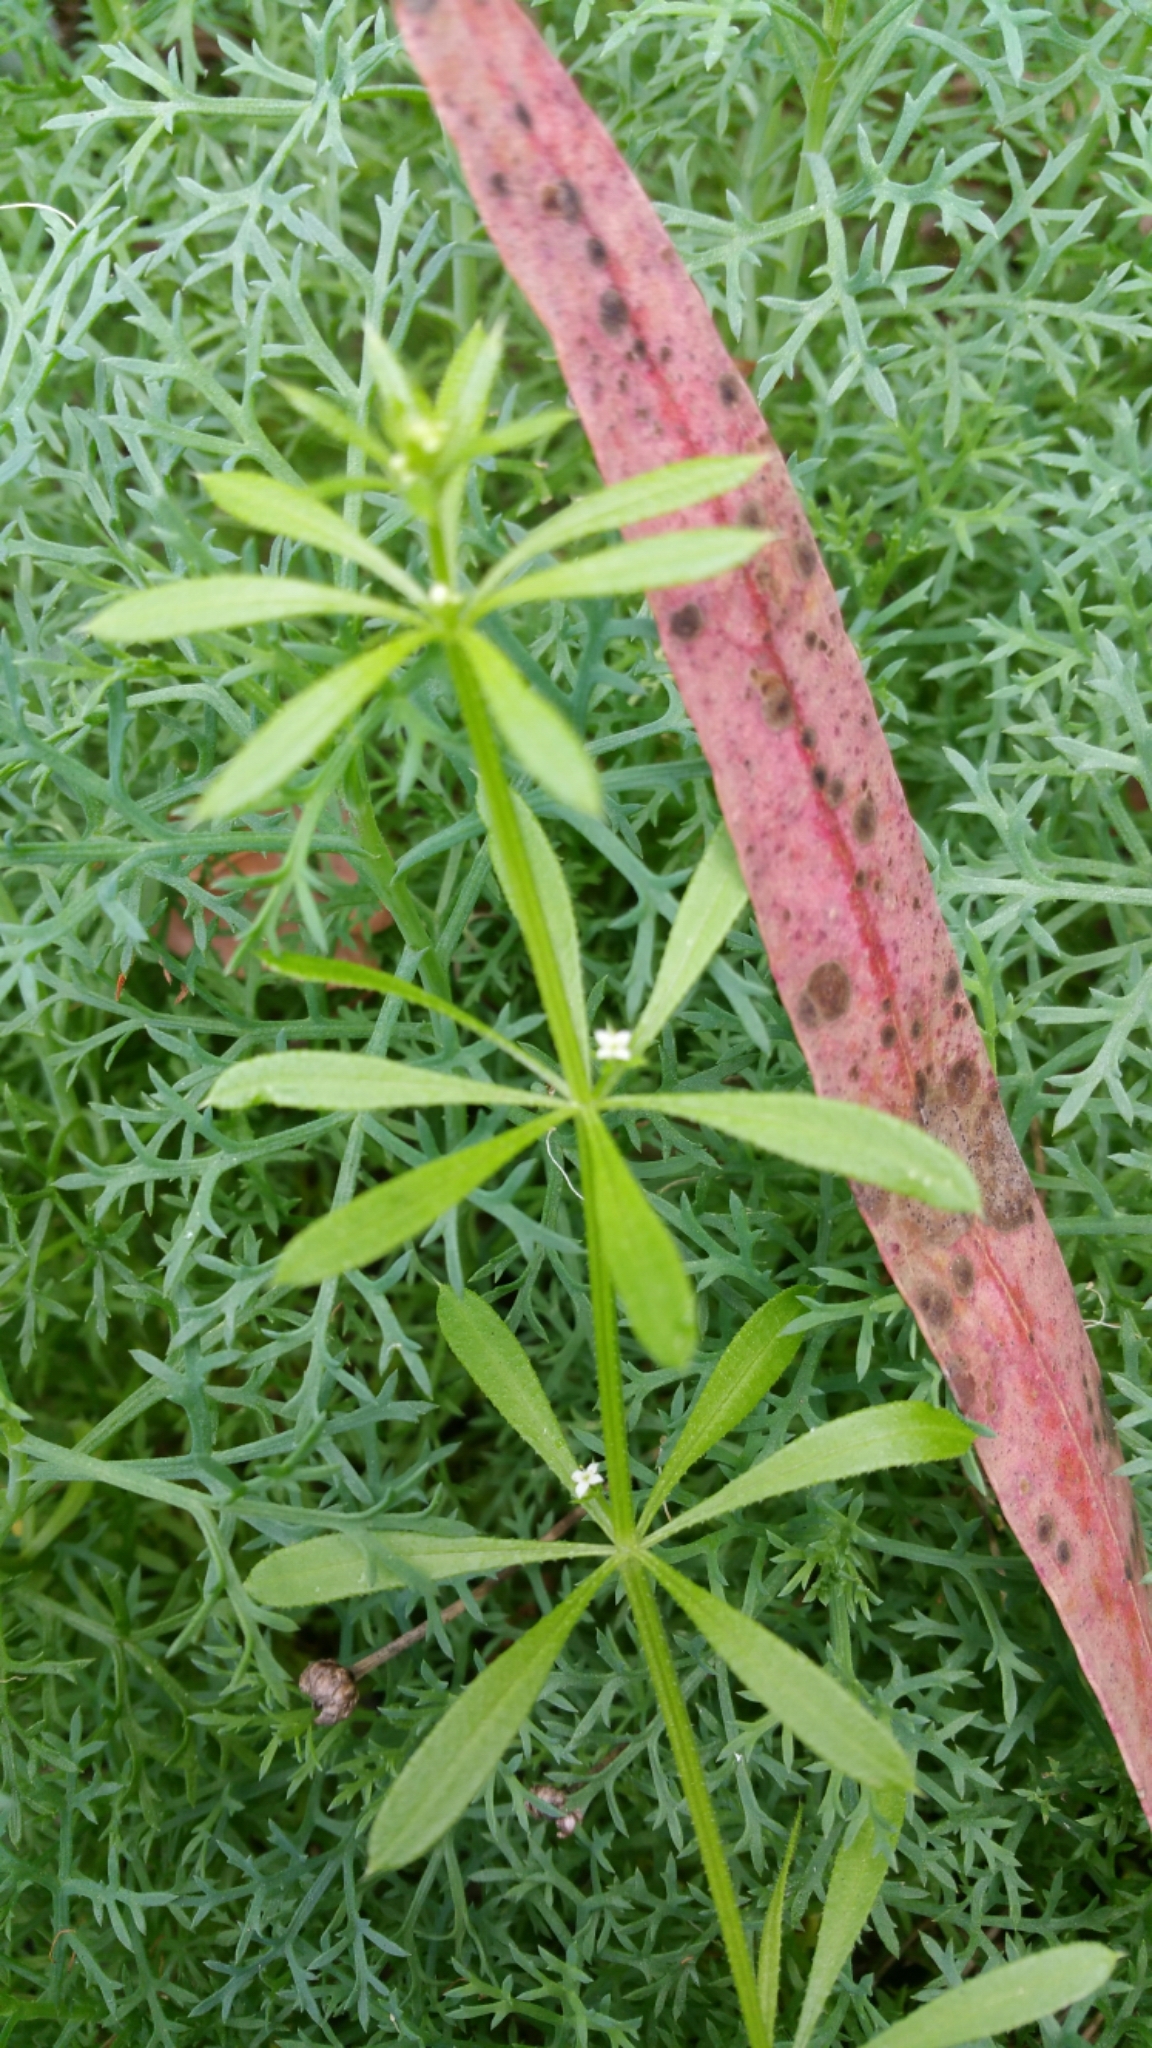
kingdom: Plantae
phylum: Tracheophyta
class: Magnoliopsida
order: Gentianales
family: Rubiaceae
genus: Galium
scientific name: Galium aparine
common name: Cleavers
